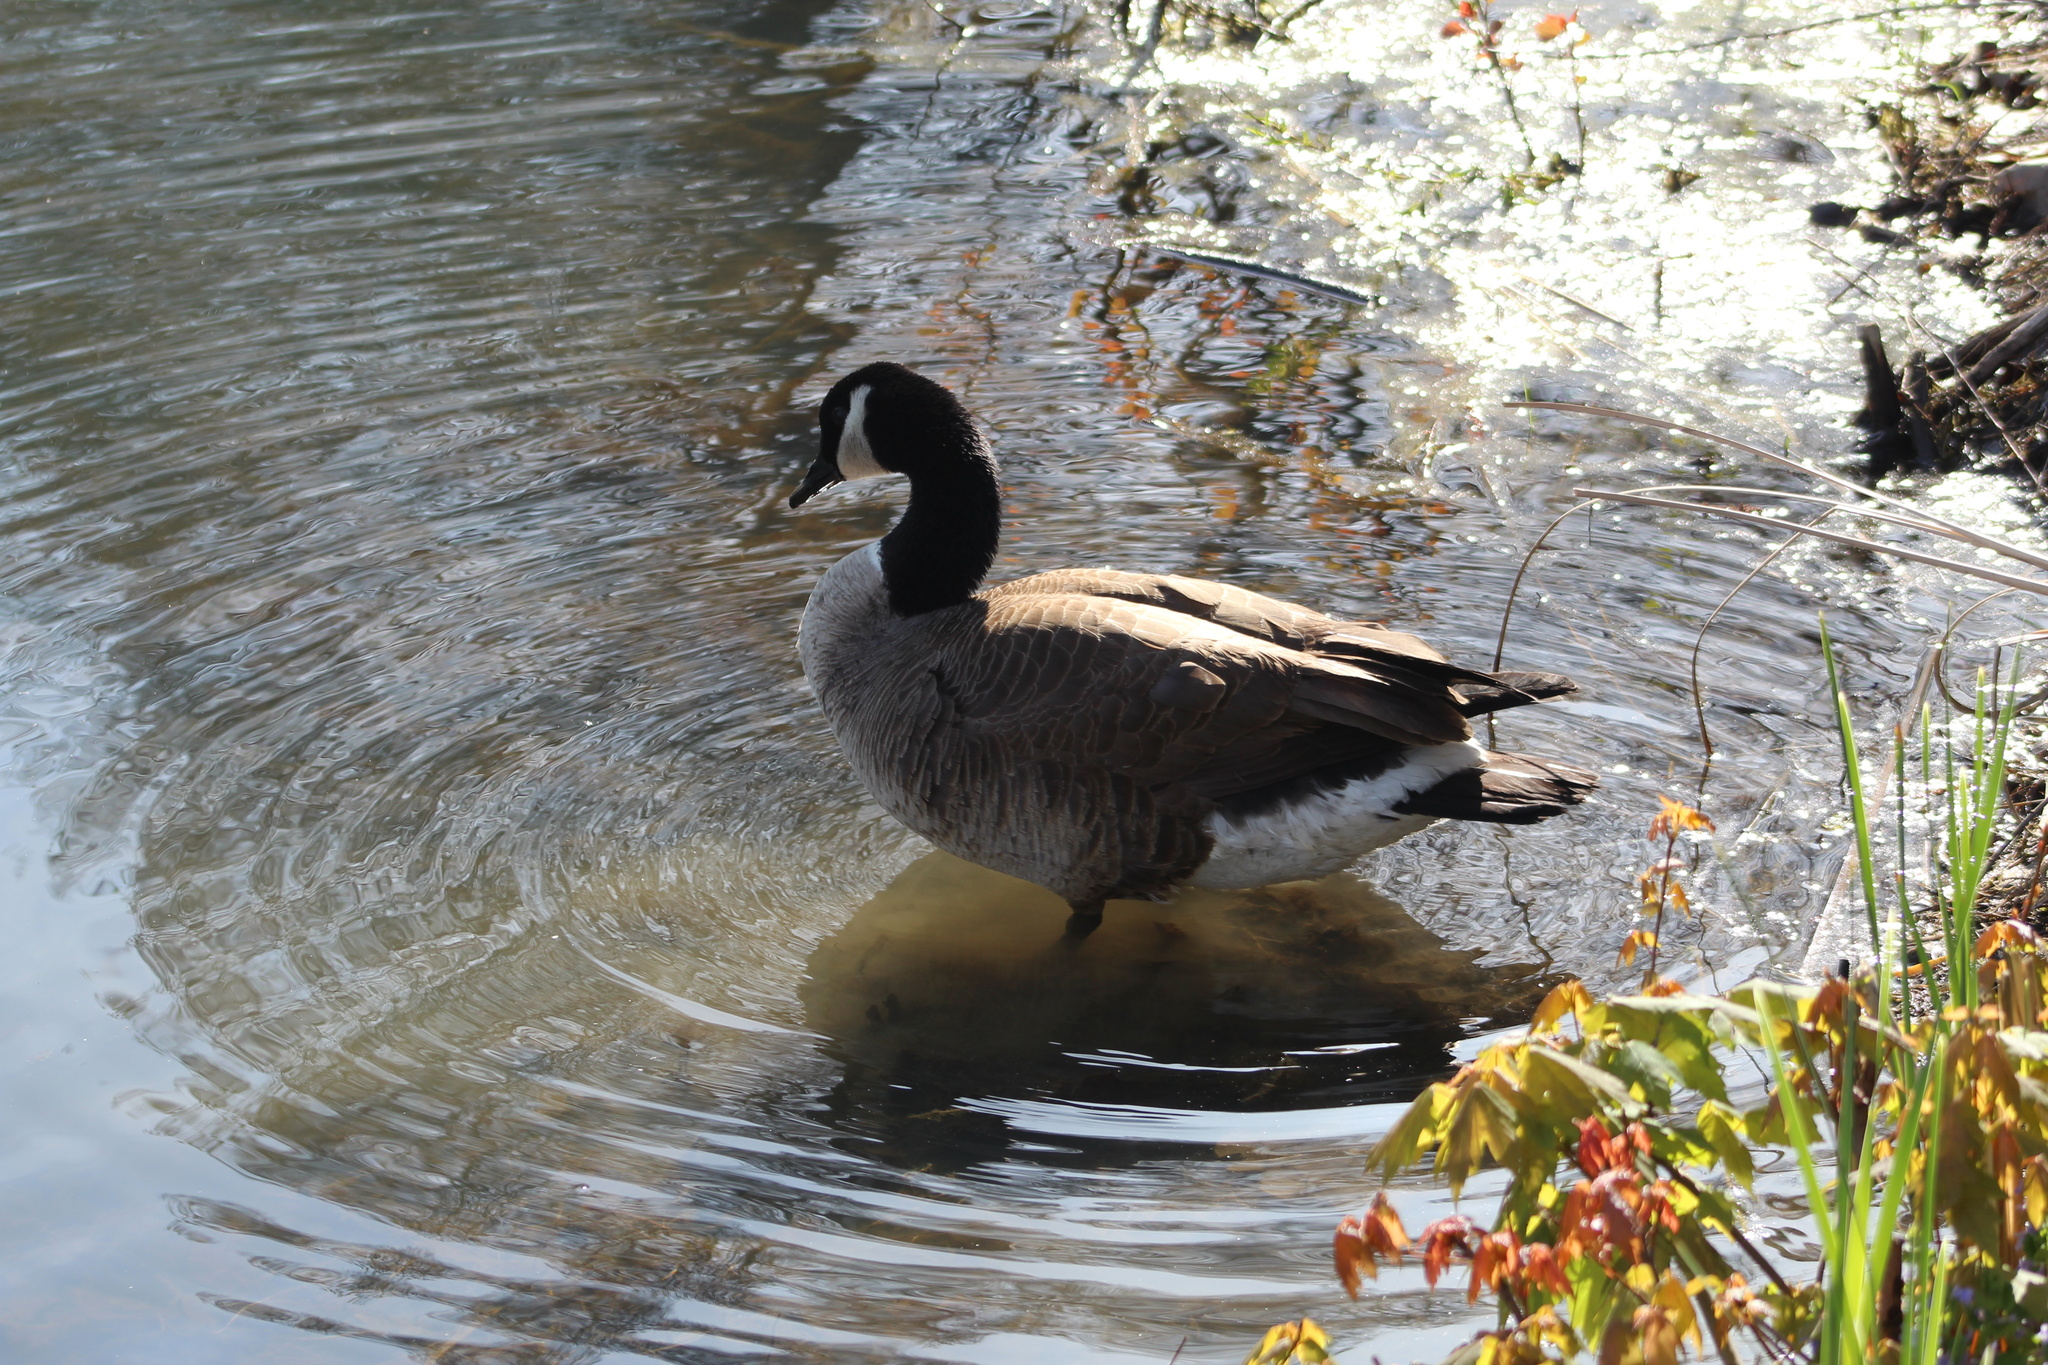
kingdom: Animalia
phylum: Chordata
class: Aves
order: Anseriformes
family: Anatidae
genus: Branta
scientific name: Branta canadensis
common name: Canada goose
